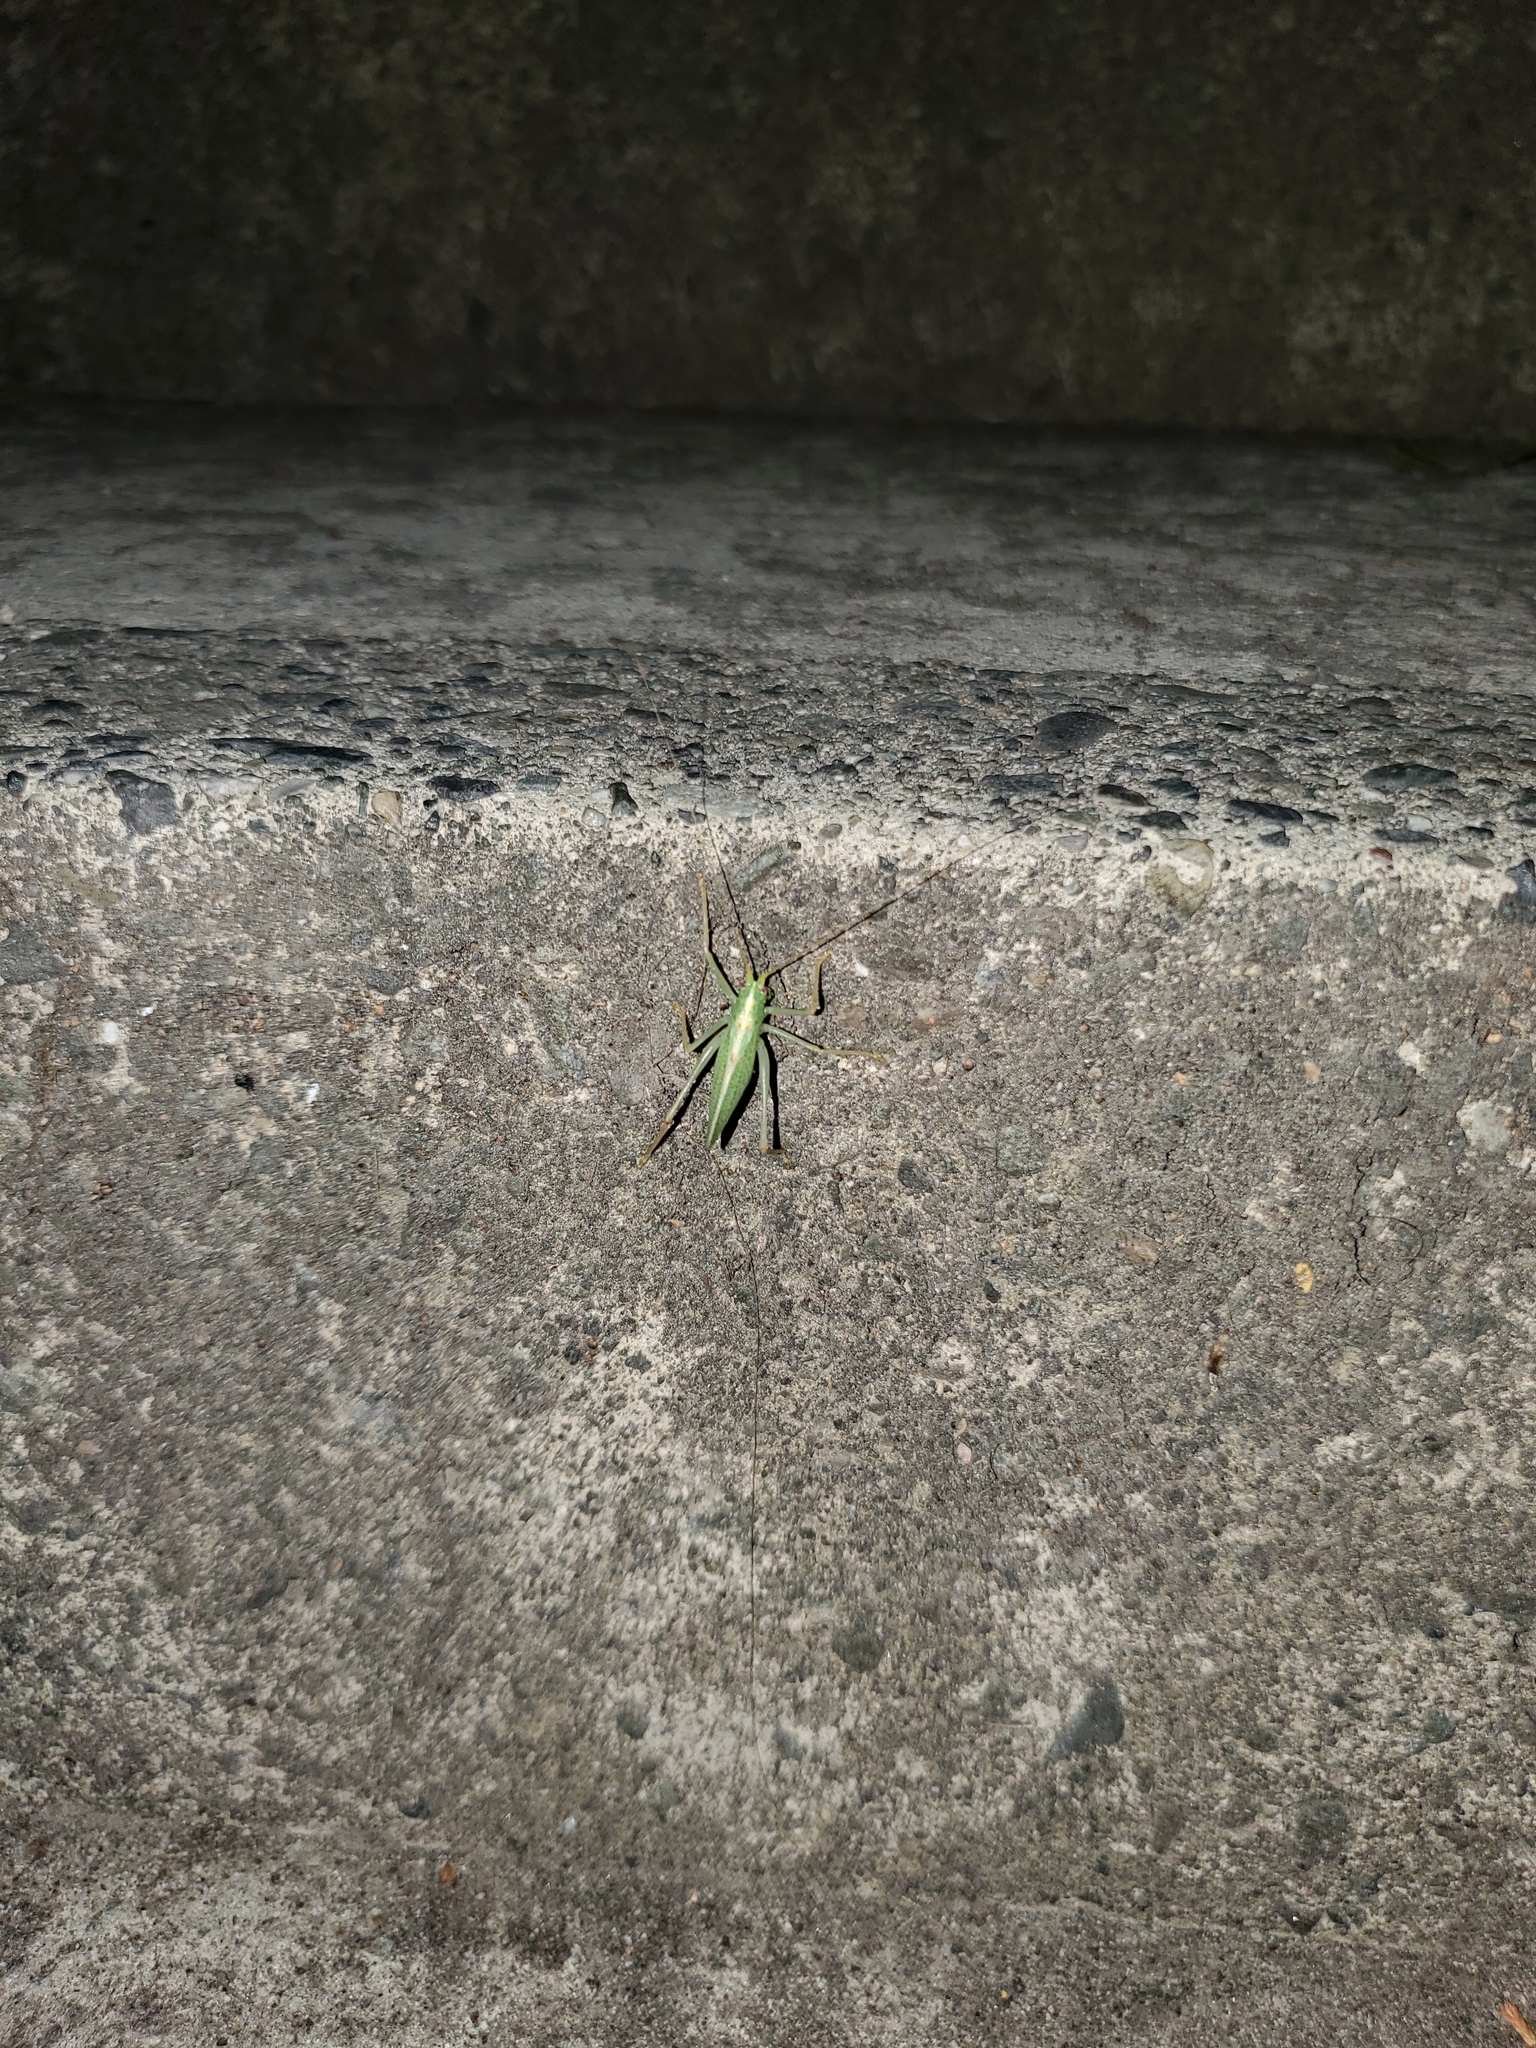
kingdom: Animalia
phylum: Arthropoda
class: Insecta
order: Orthoptera
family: Tettigoniidae
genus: Meconema
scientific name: Meconema thalassinum
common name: Oak bush-cricket
